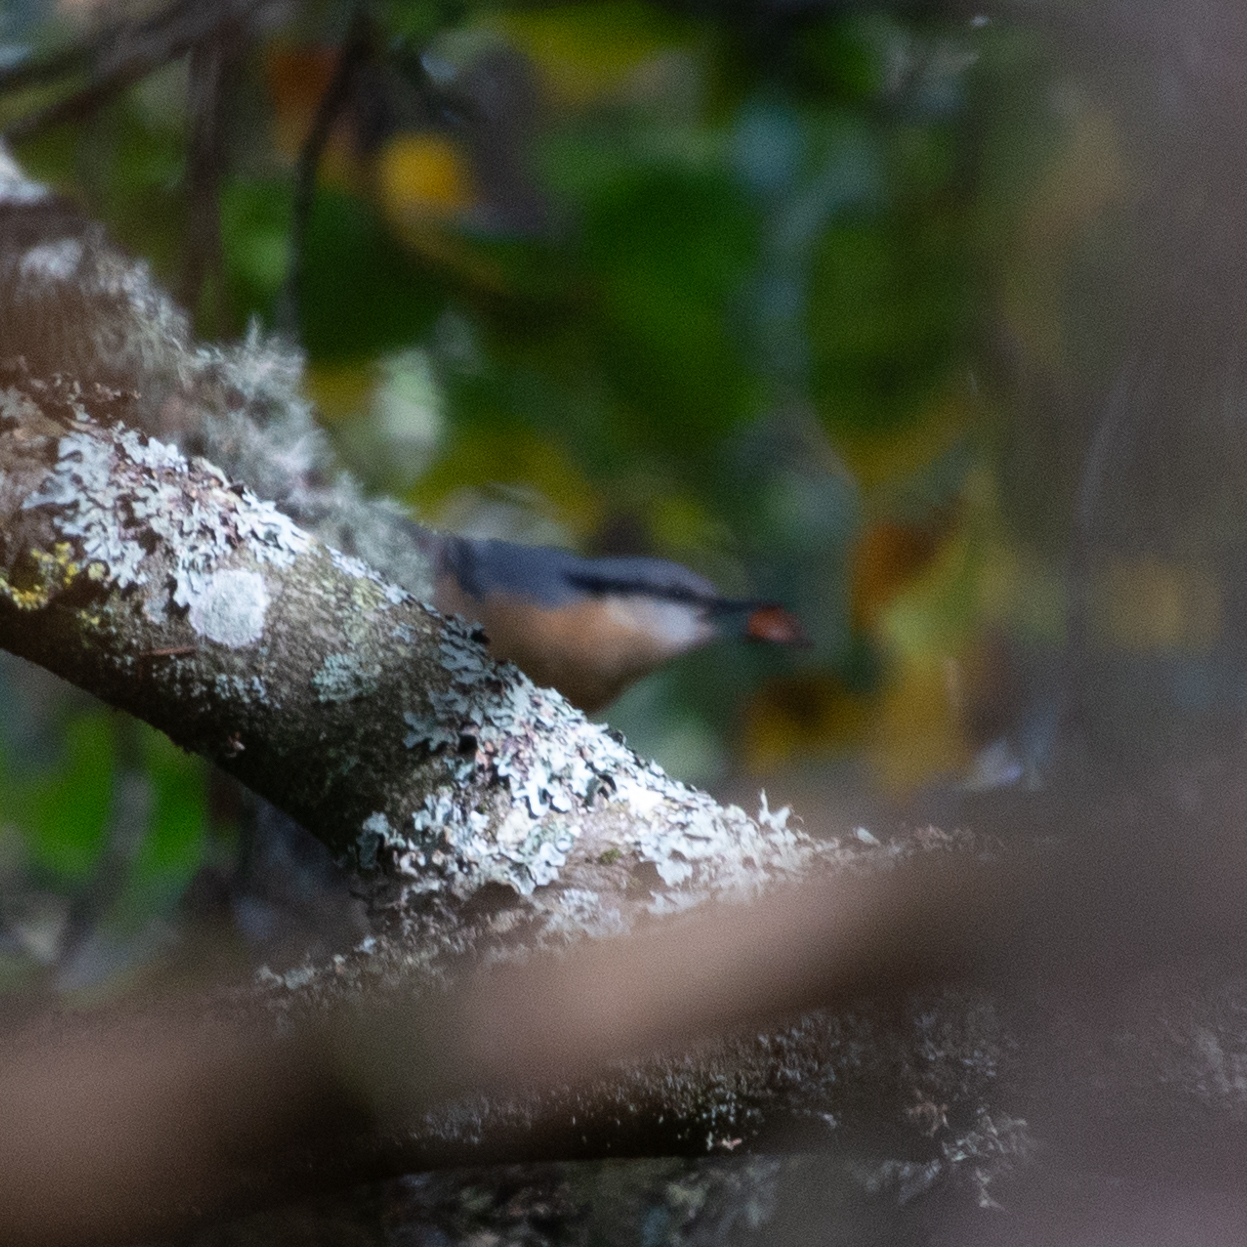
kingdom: Animalia
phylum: Chordata
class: Aves
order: Passeriformes
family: Sittidae
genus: Sitta
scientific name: Sitta europaea
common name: Eurasian nuthatch
